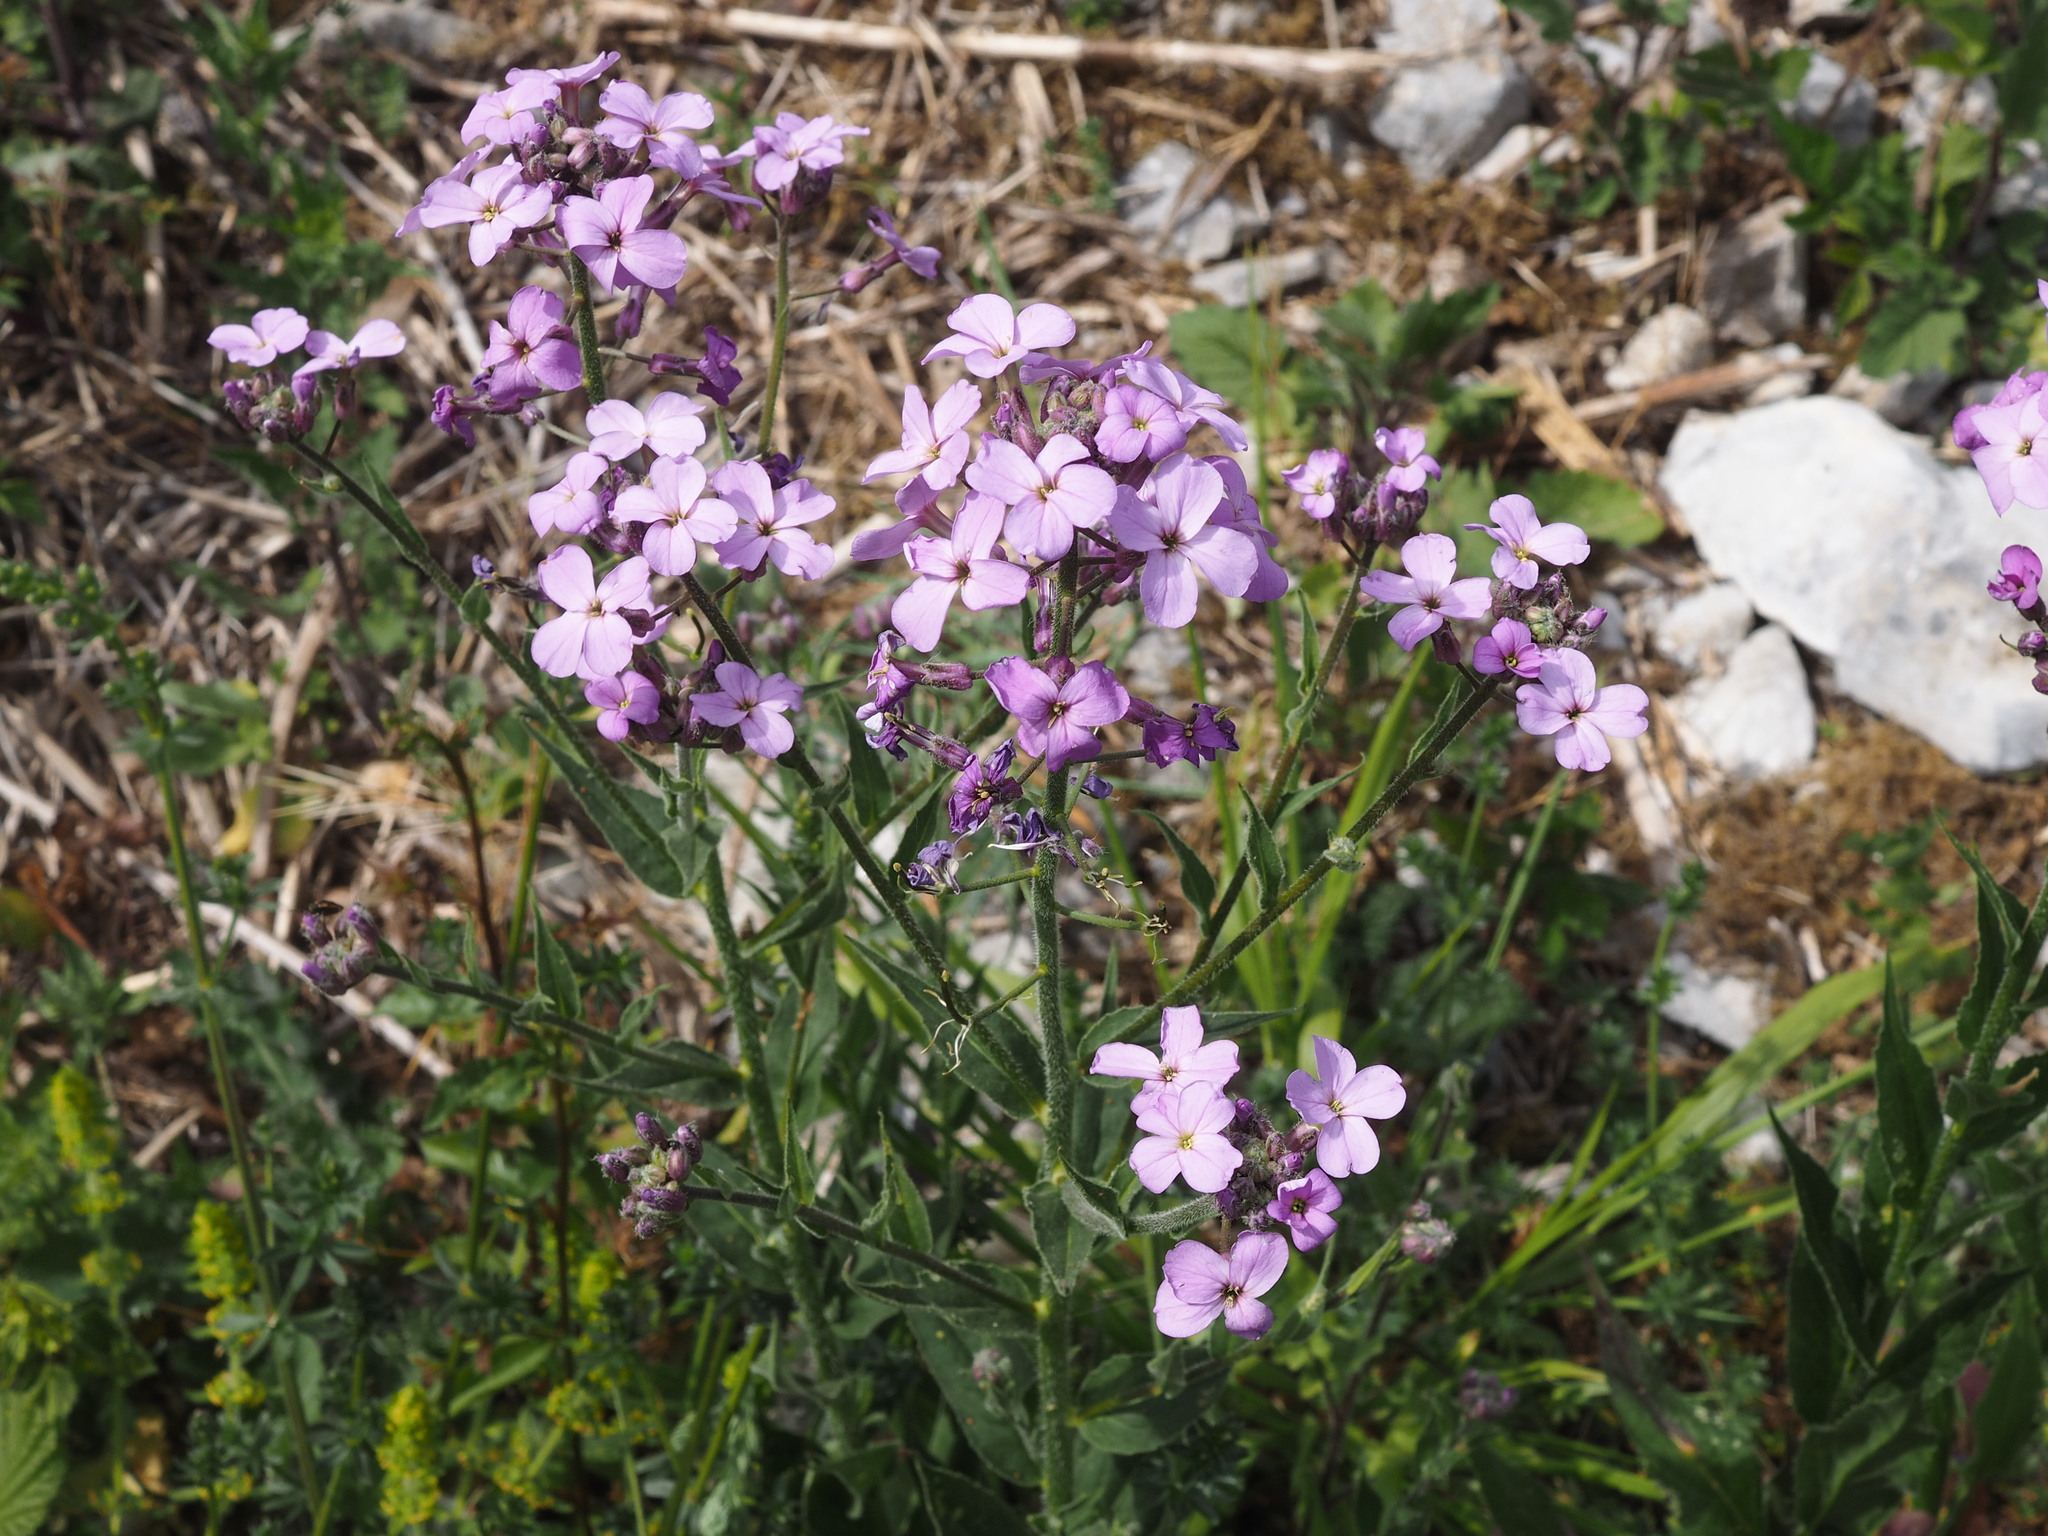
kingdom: Plantae
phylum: Tracheophyta
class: Magnoliopsida
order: Brassicales
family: Brassicaceae
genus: Hesperis
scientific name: Hesperis matronalis
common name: Dame's-violet
